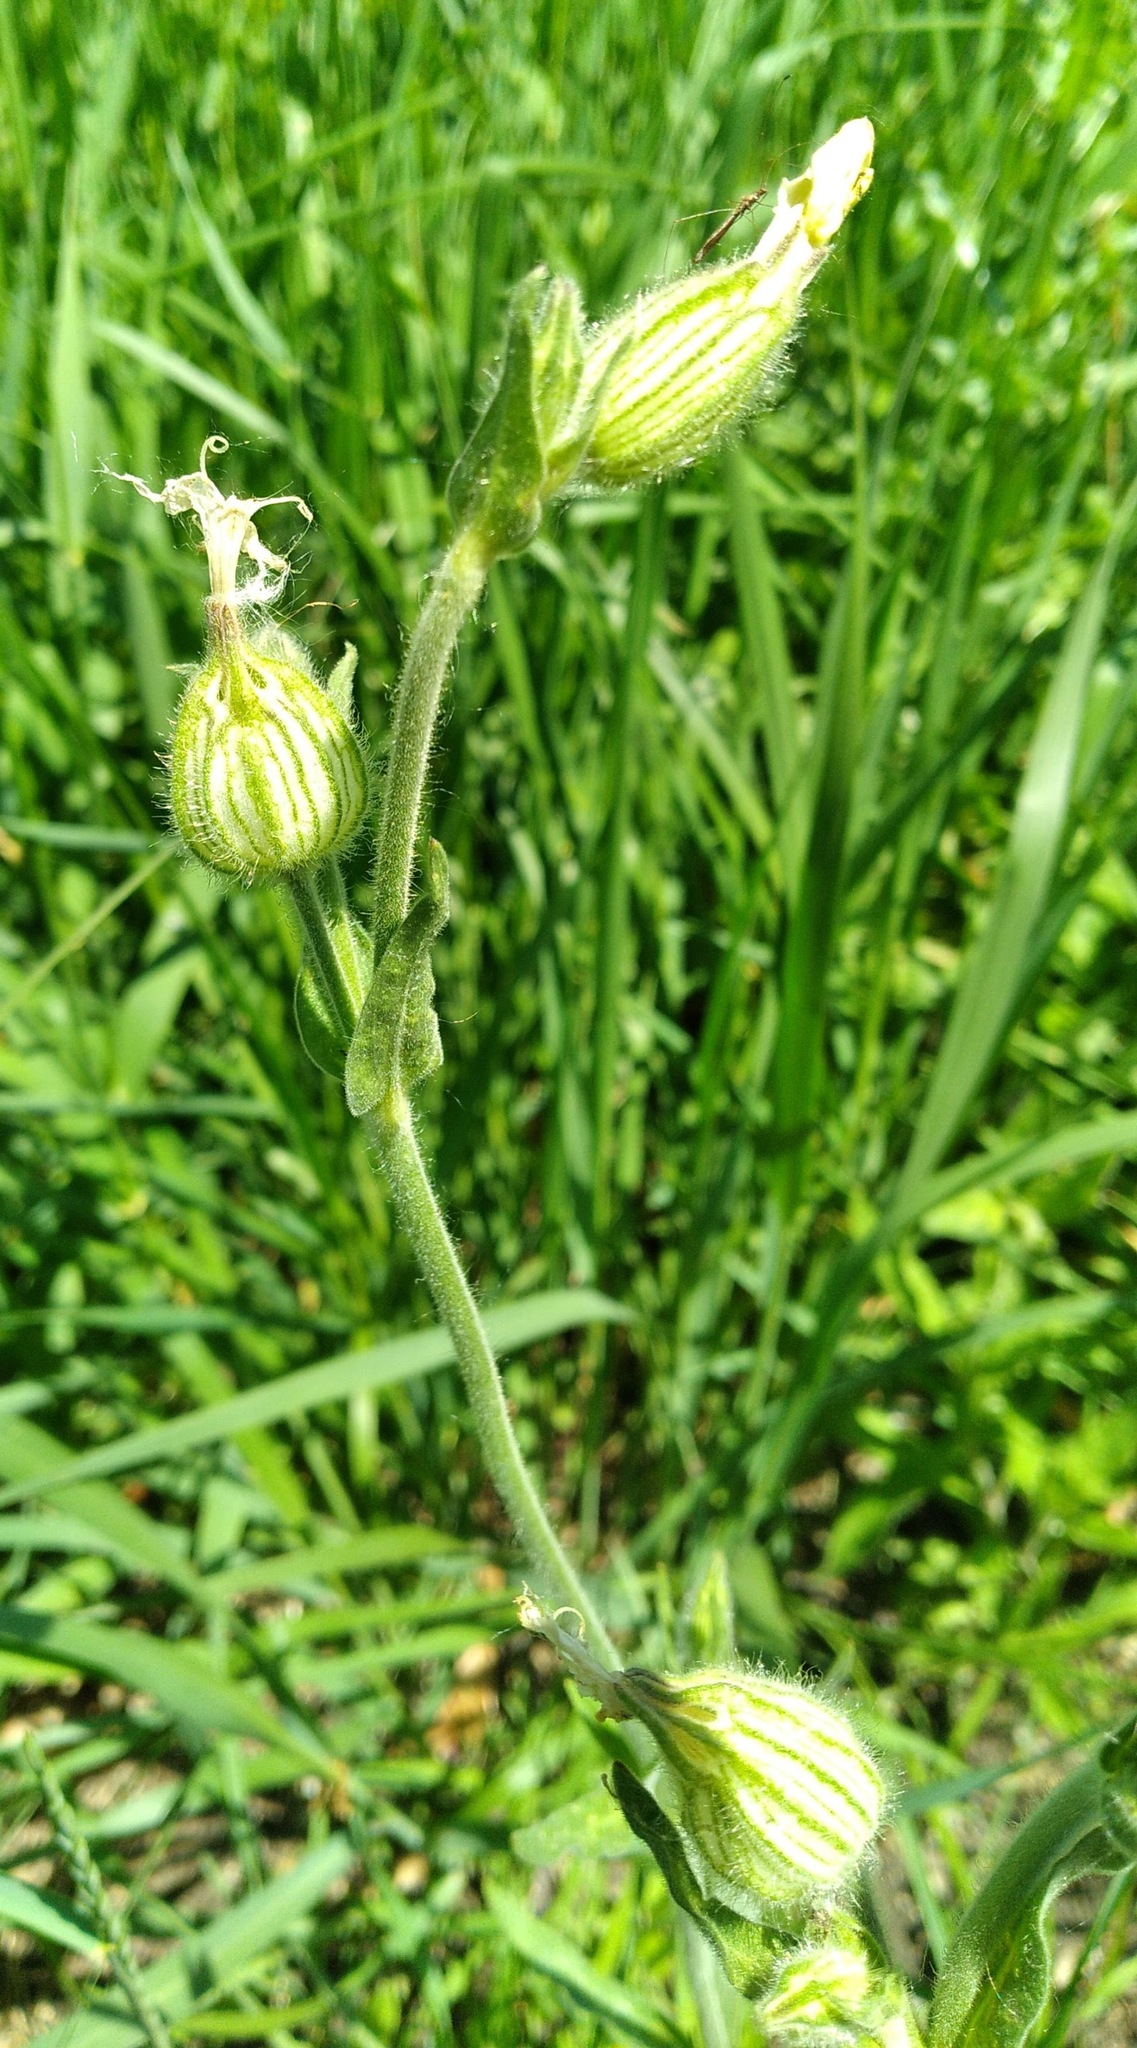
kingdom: Plantae
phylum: Tracheophyta
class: Magnoliopsida
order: Caryophyllales
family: Caryophyllaceae
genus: Silene
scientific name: Silene latifolia
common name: White campion
